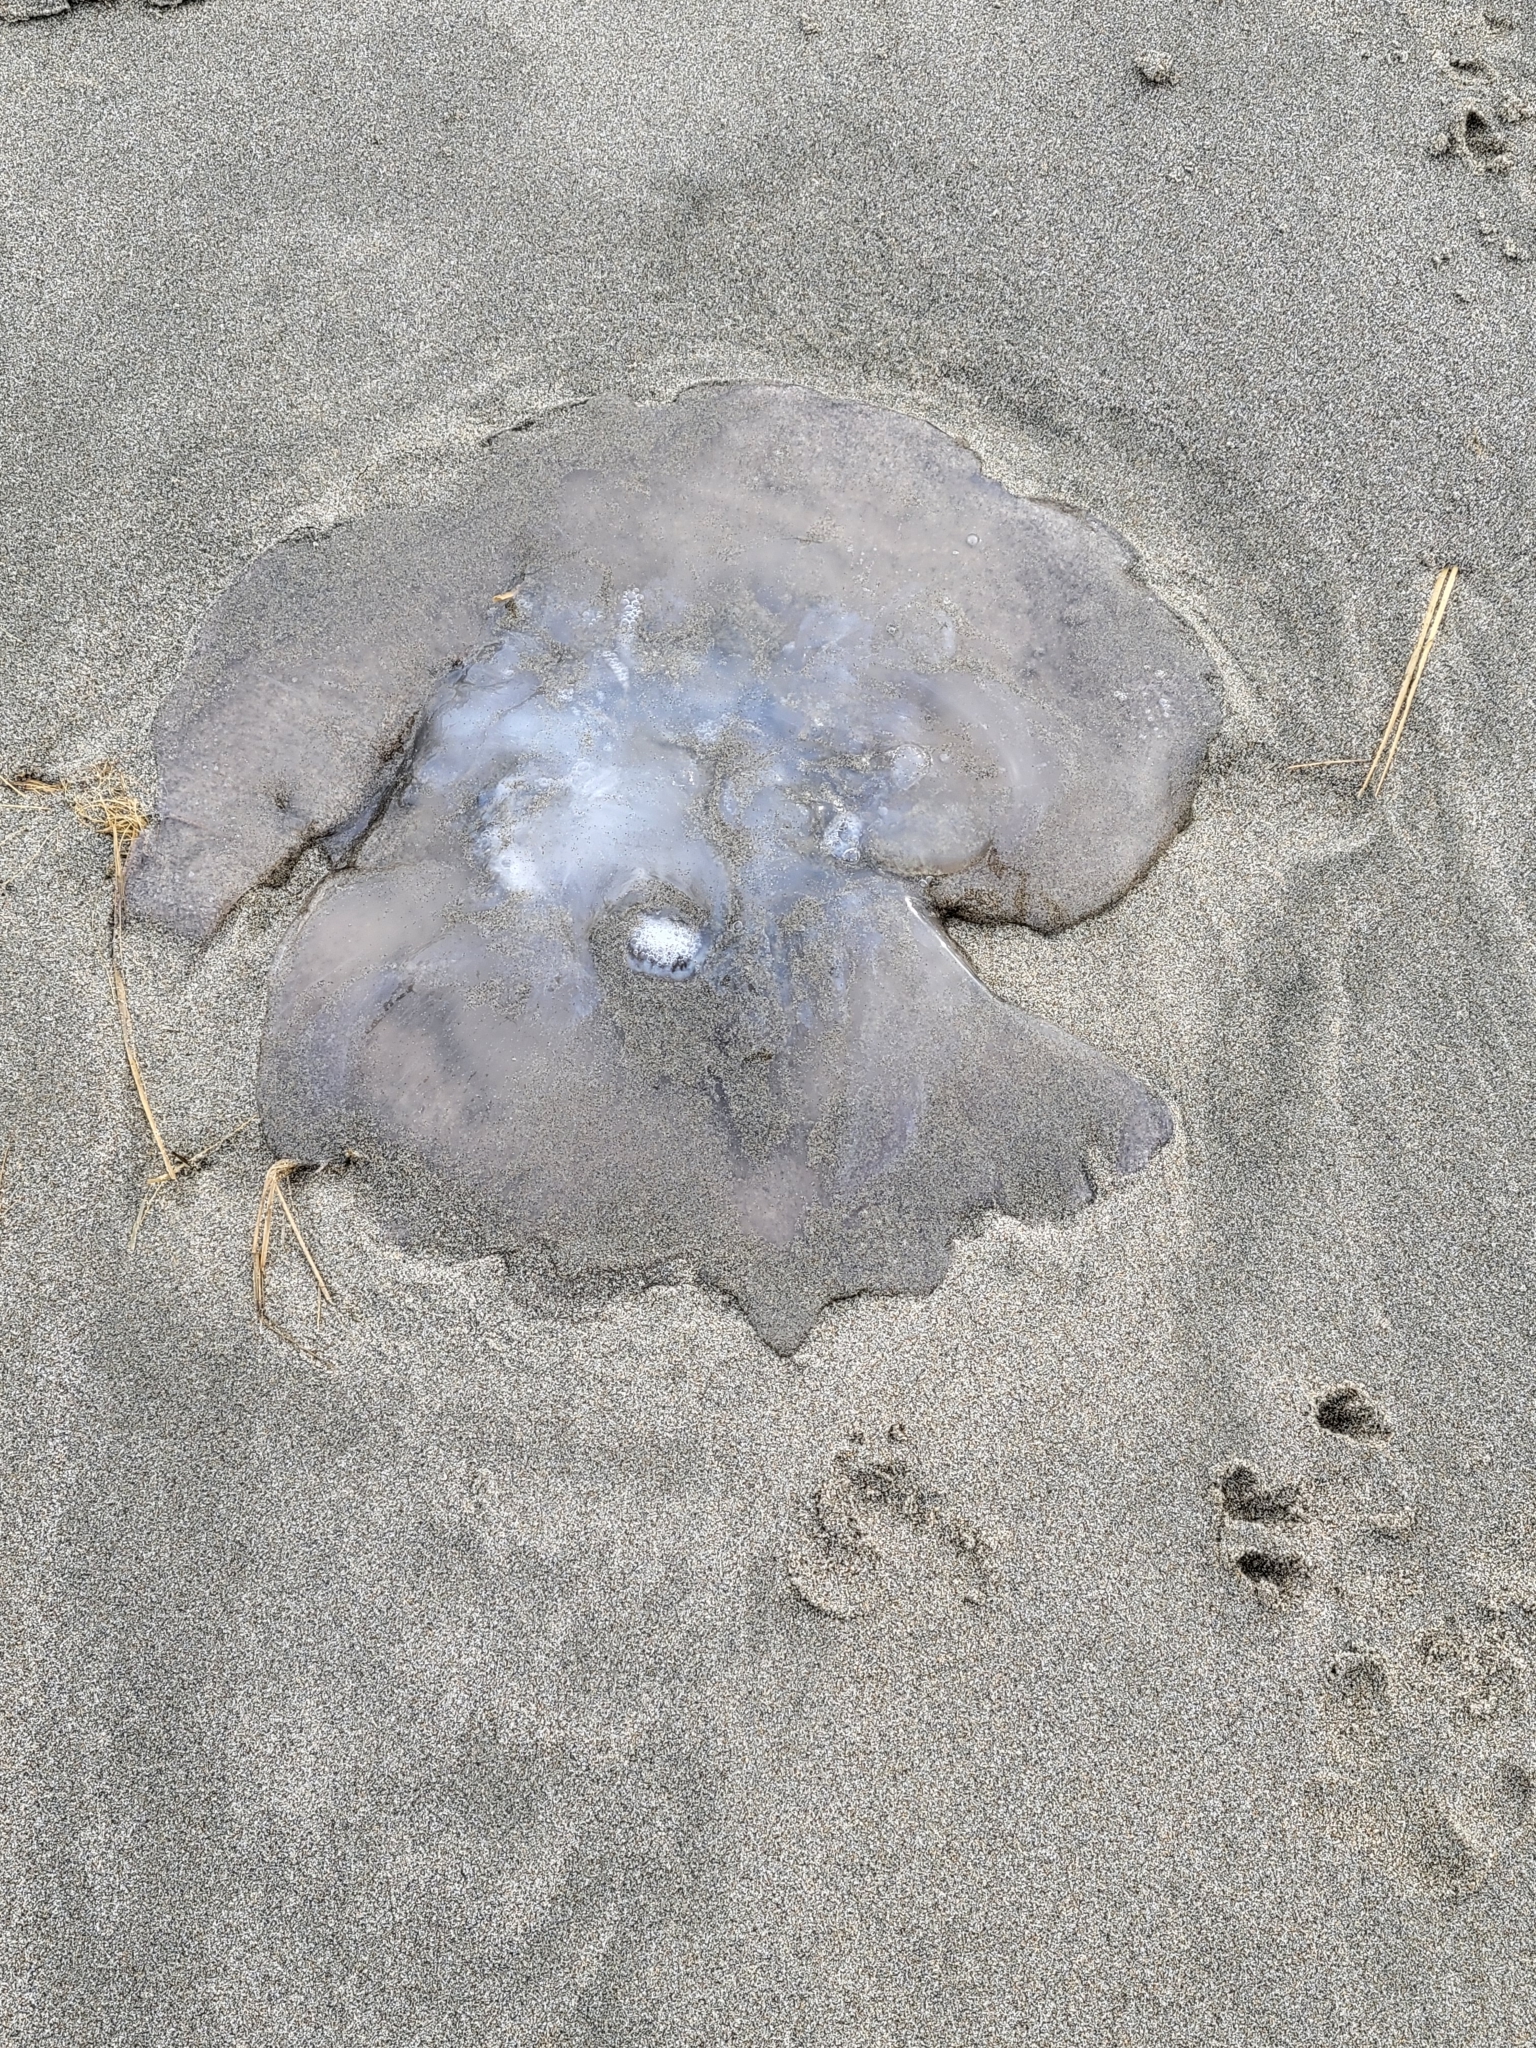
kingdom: Animalia
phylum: Cnidaria
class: Scyphozoa
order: Semaeostomeae
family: Ulmaridae
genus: Aurelia
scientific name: Aurelia labiata
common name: Pacific moon jelly
